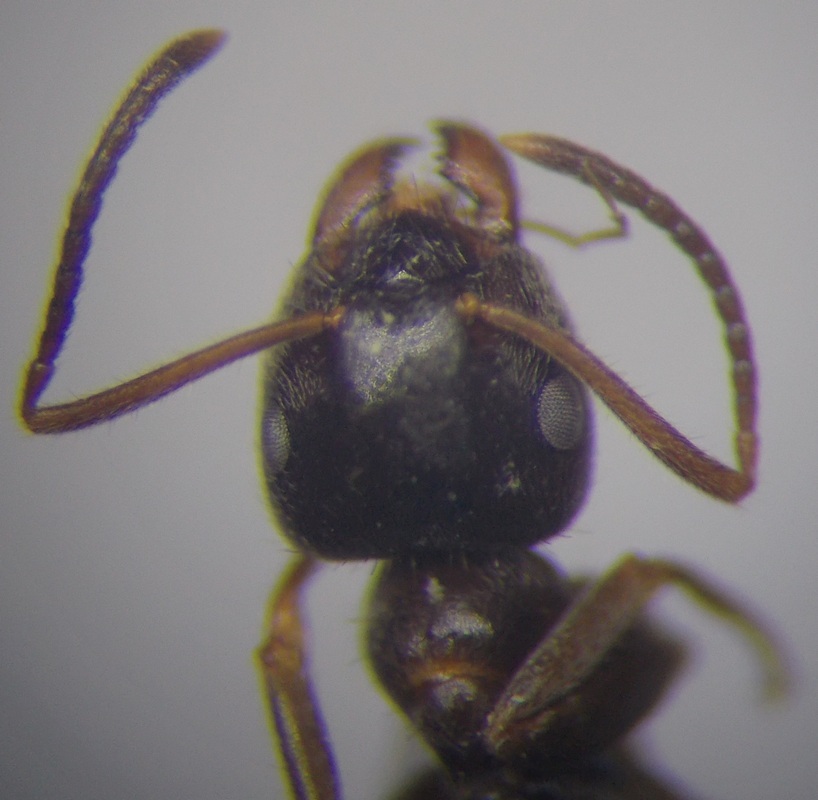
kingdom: Animalia
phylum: Arthropoda
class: Insecta
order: Hymenoptera
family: Formicidae
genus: Lasius
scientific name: Lasius niger
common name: Small black ant
